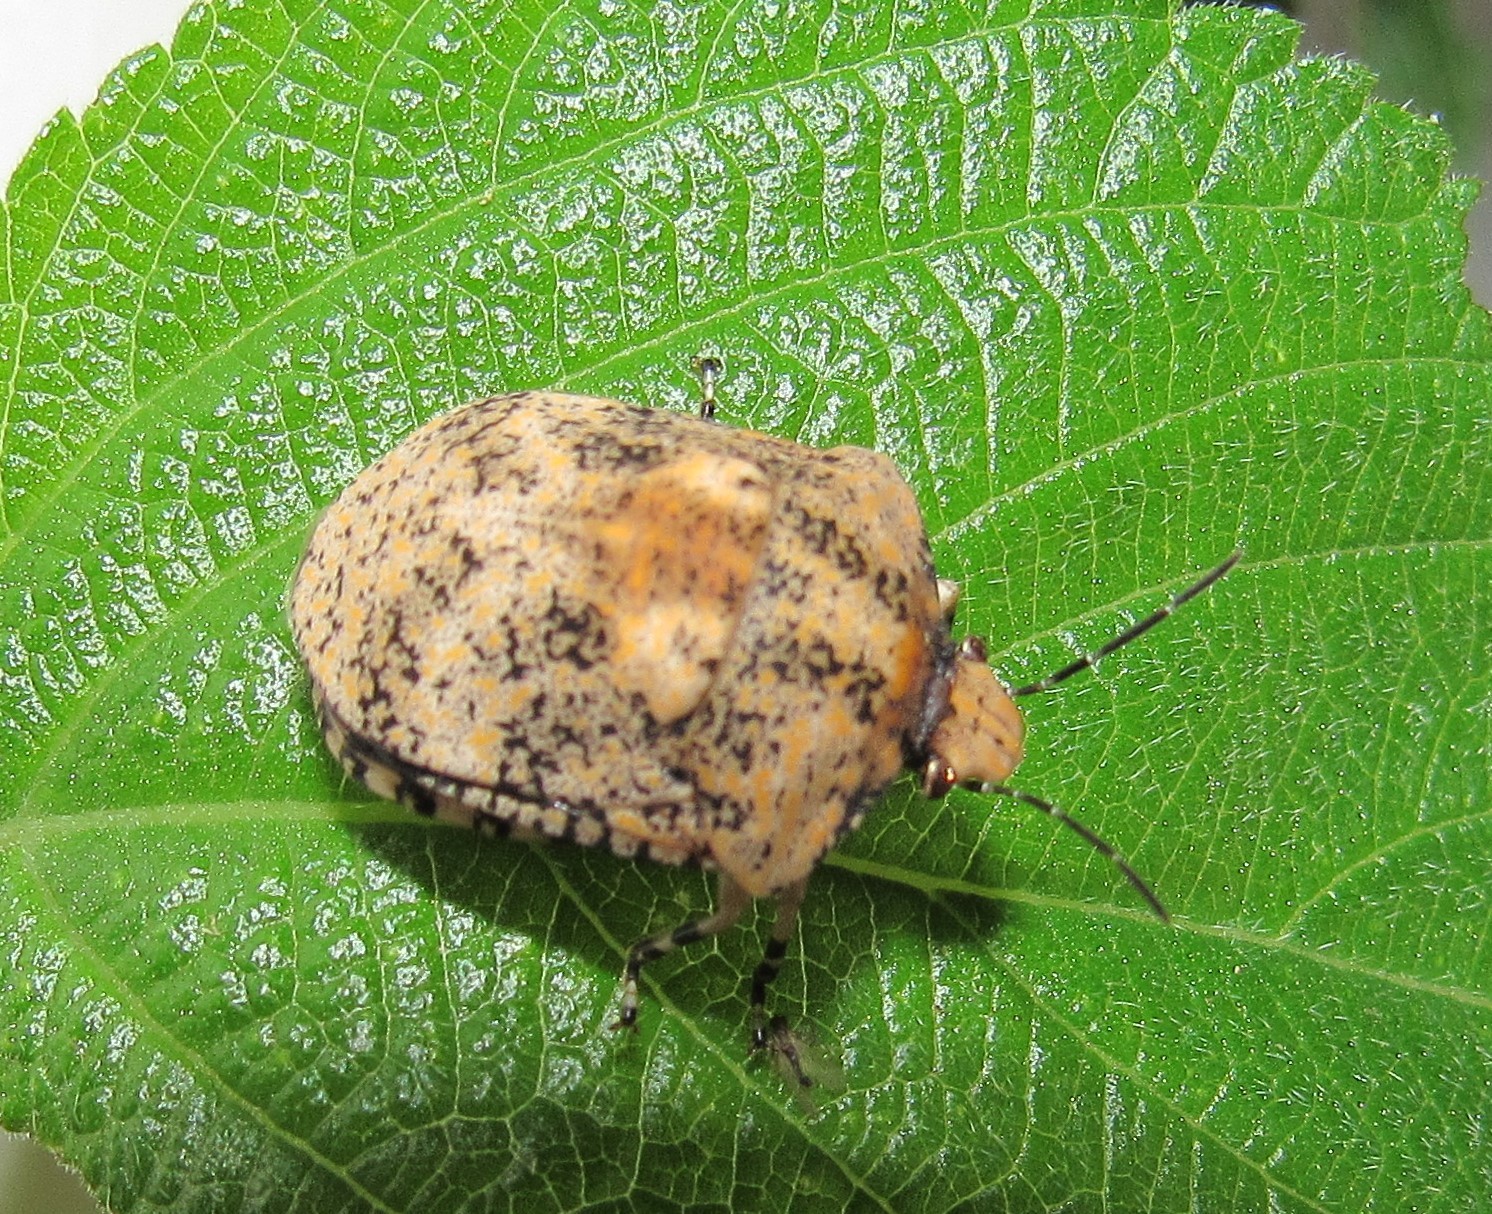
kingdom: Animalia
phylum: Arthropoda
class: Insecta
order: Hemiptera
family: Scutelleridae
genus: Tetyra
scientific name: Tetyra pinguis
